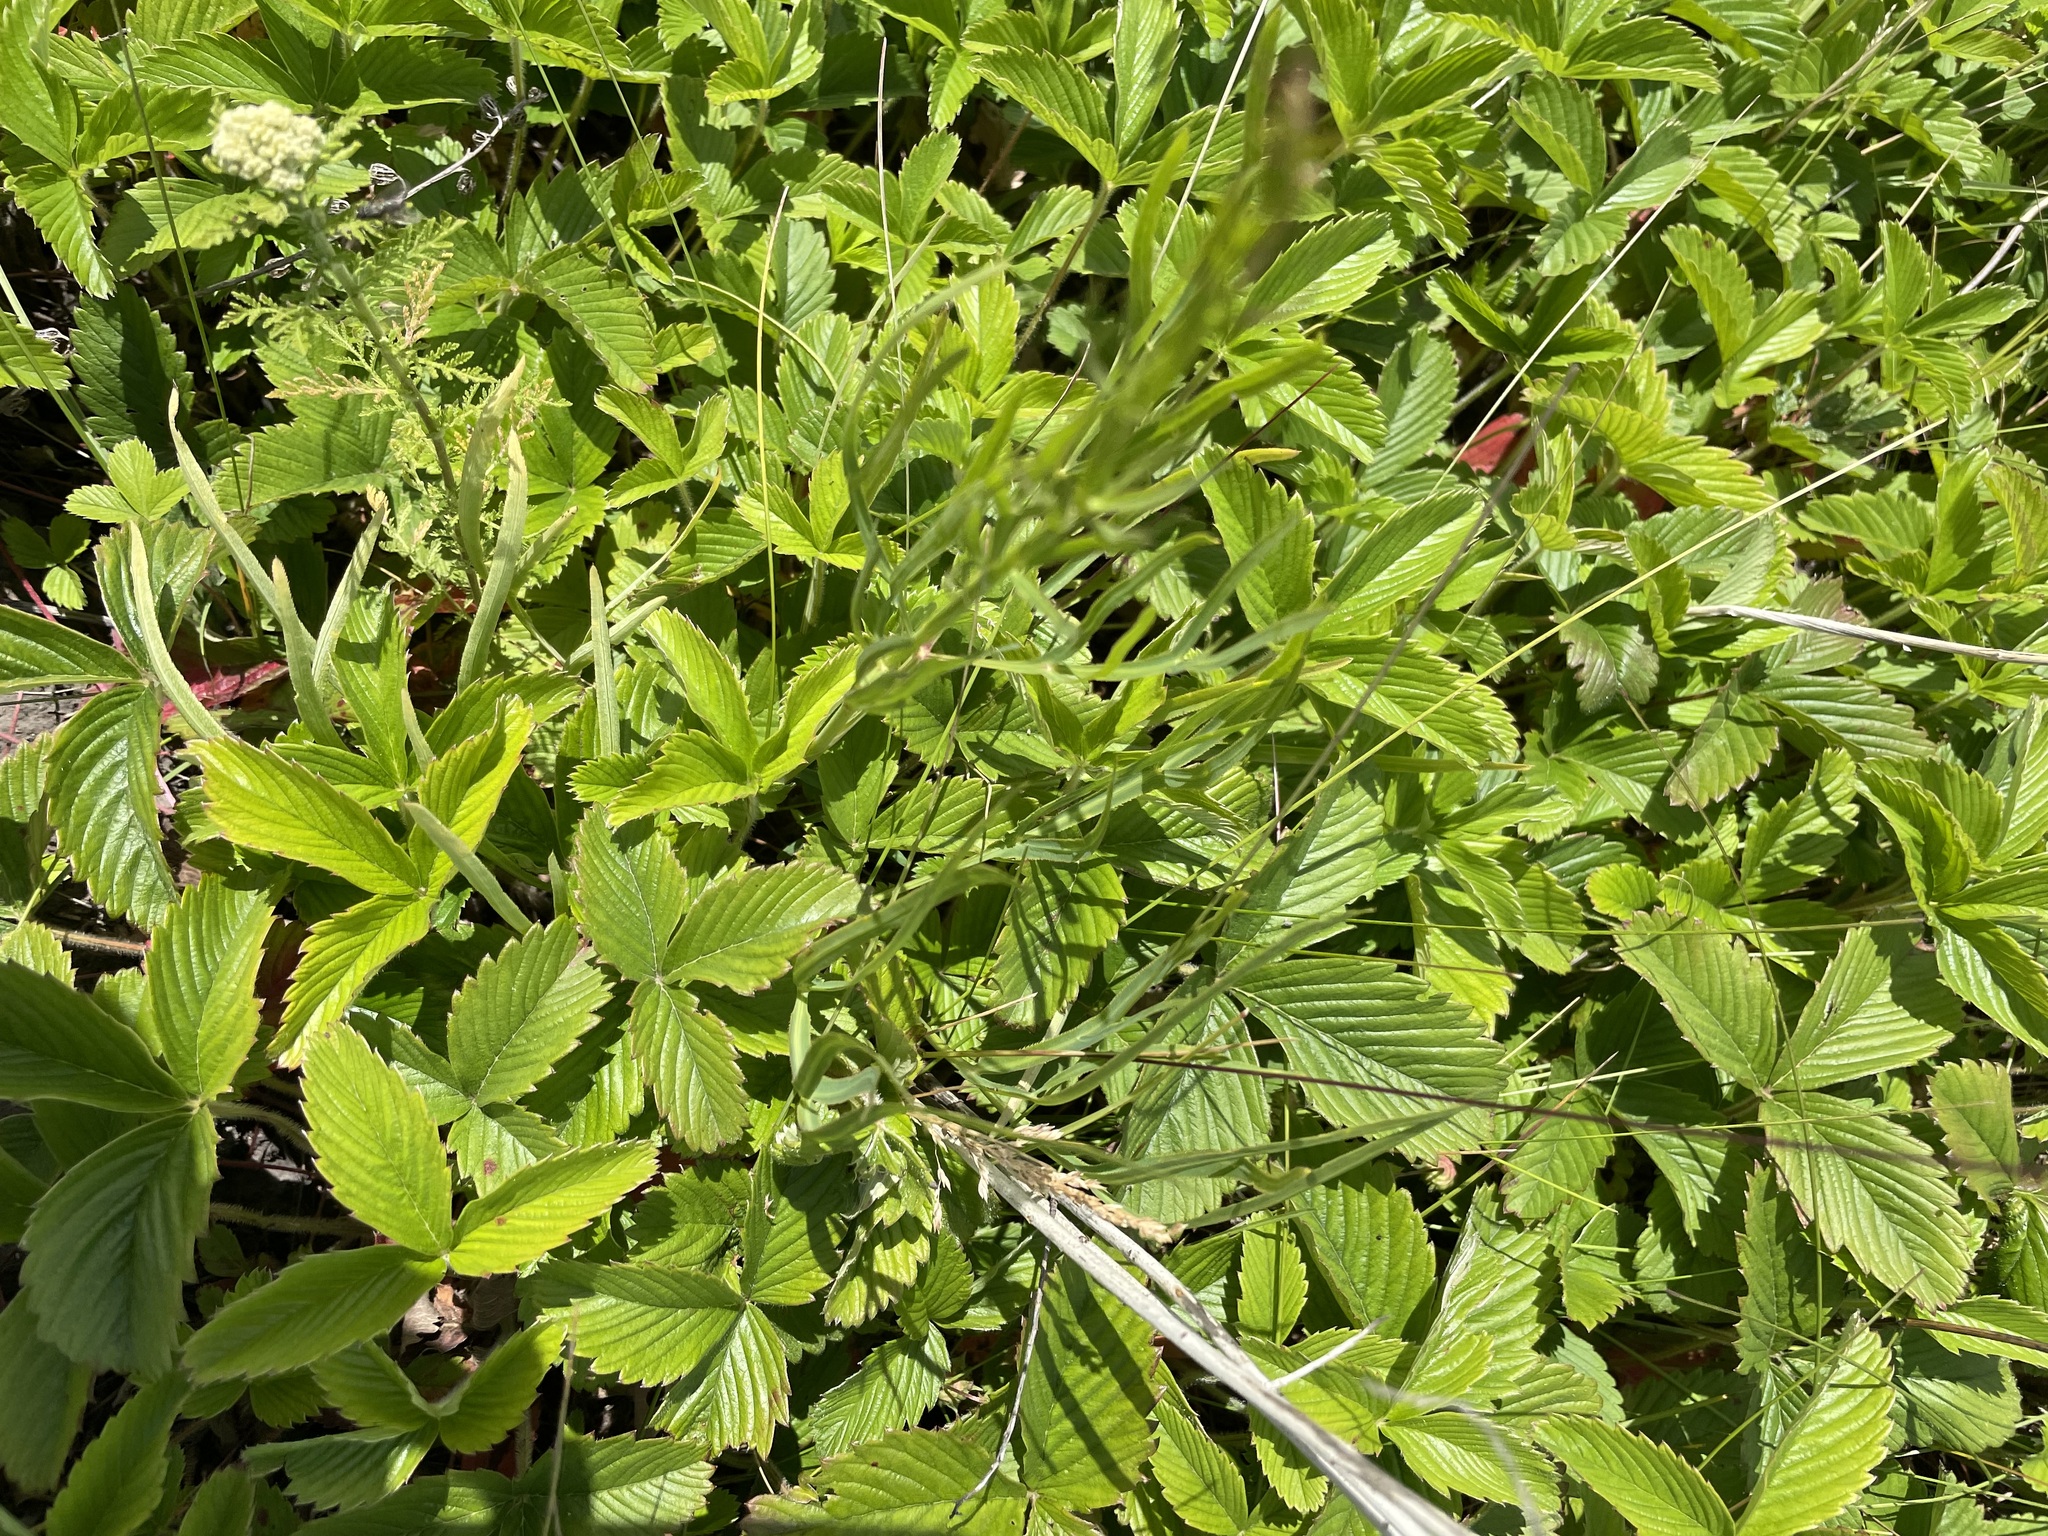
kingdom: Plantae
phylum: Tracheophyta
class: Magnoliopsida
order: Rosales
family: Rosaceae
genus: Fragaria
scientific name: Fragaria viridis
